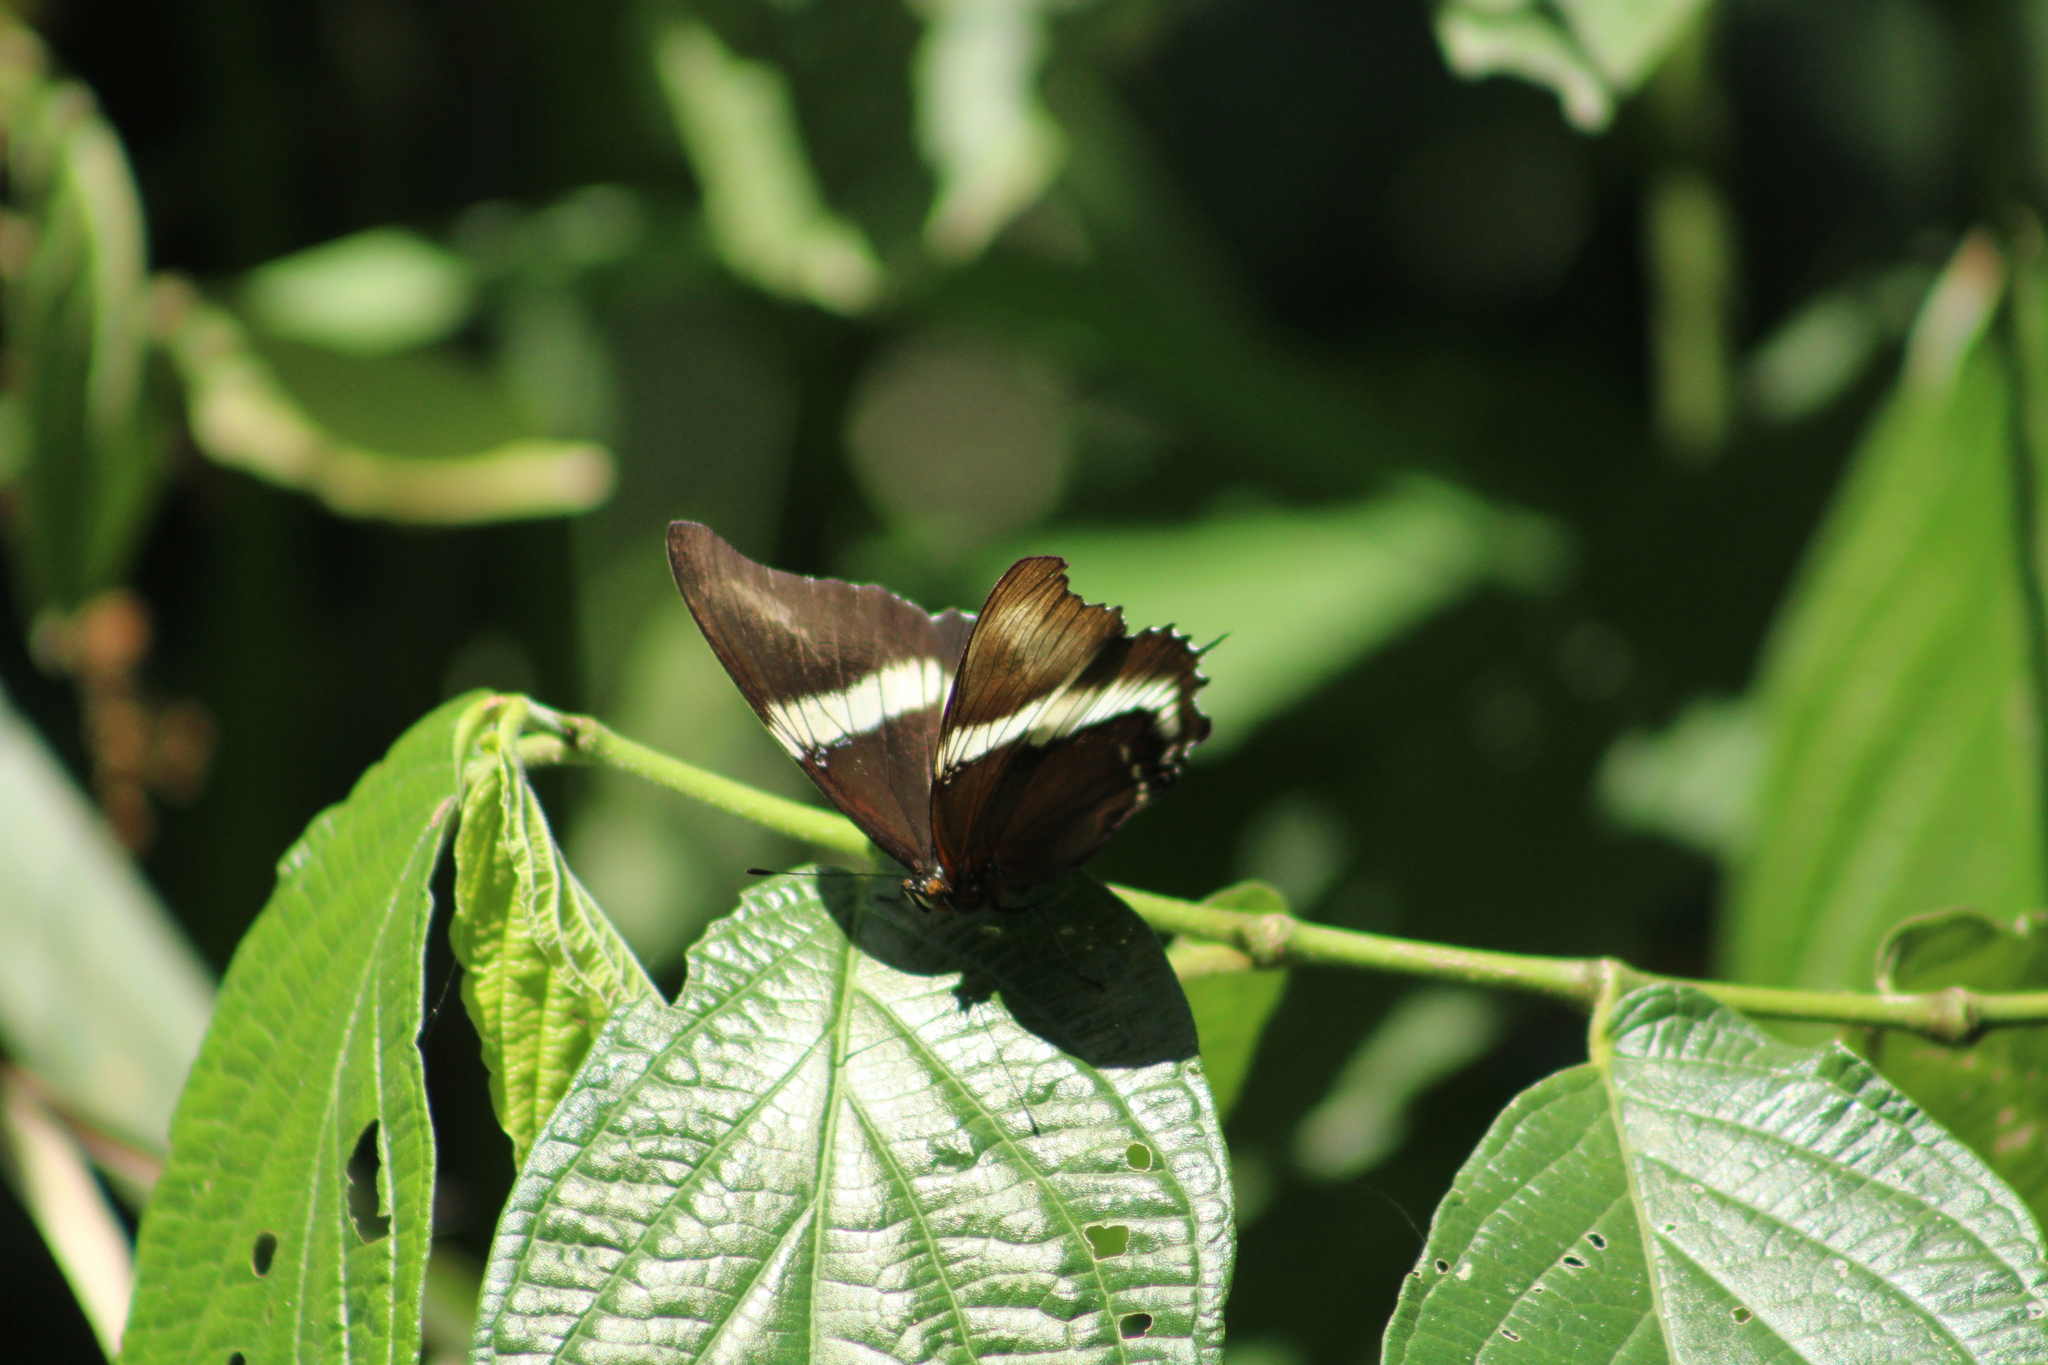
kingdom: Animalia
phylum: Arthropoda
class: Insecta
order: Lepidoptera
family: Nymphalidae
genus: Siproeta
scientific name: Siproeta epaphus
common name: Rusty-tipped page
